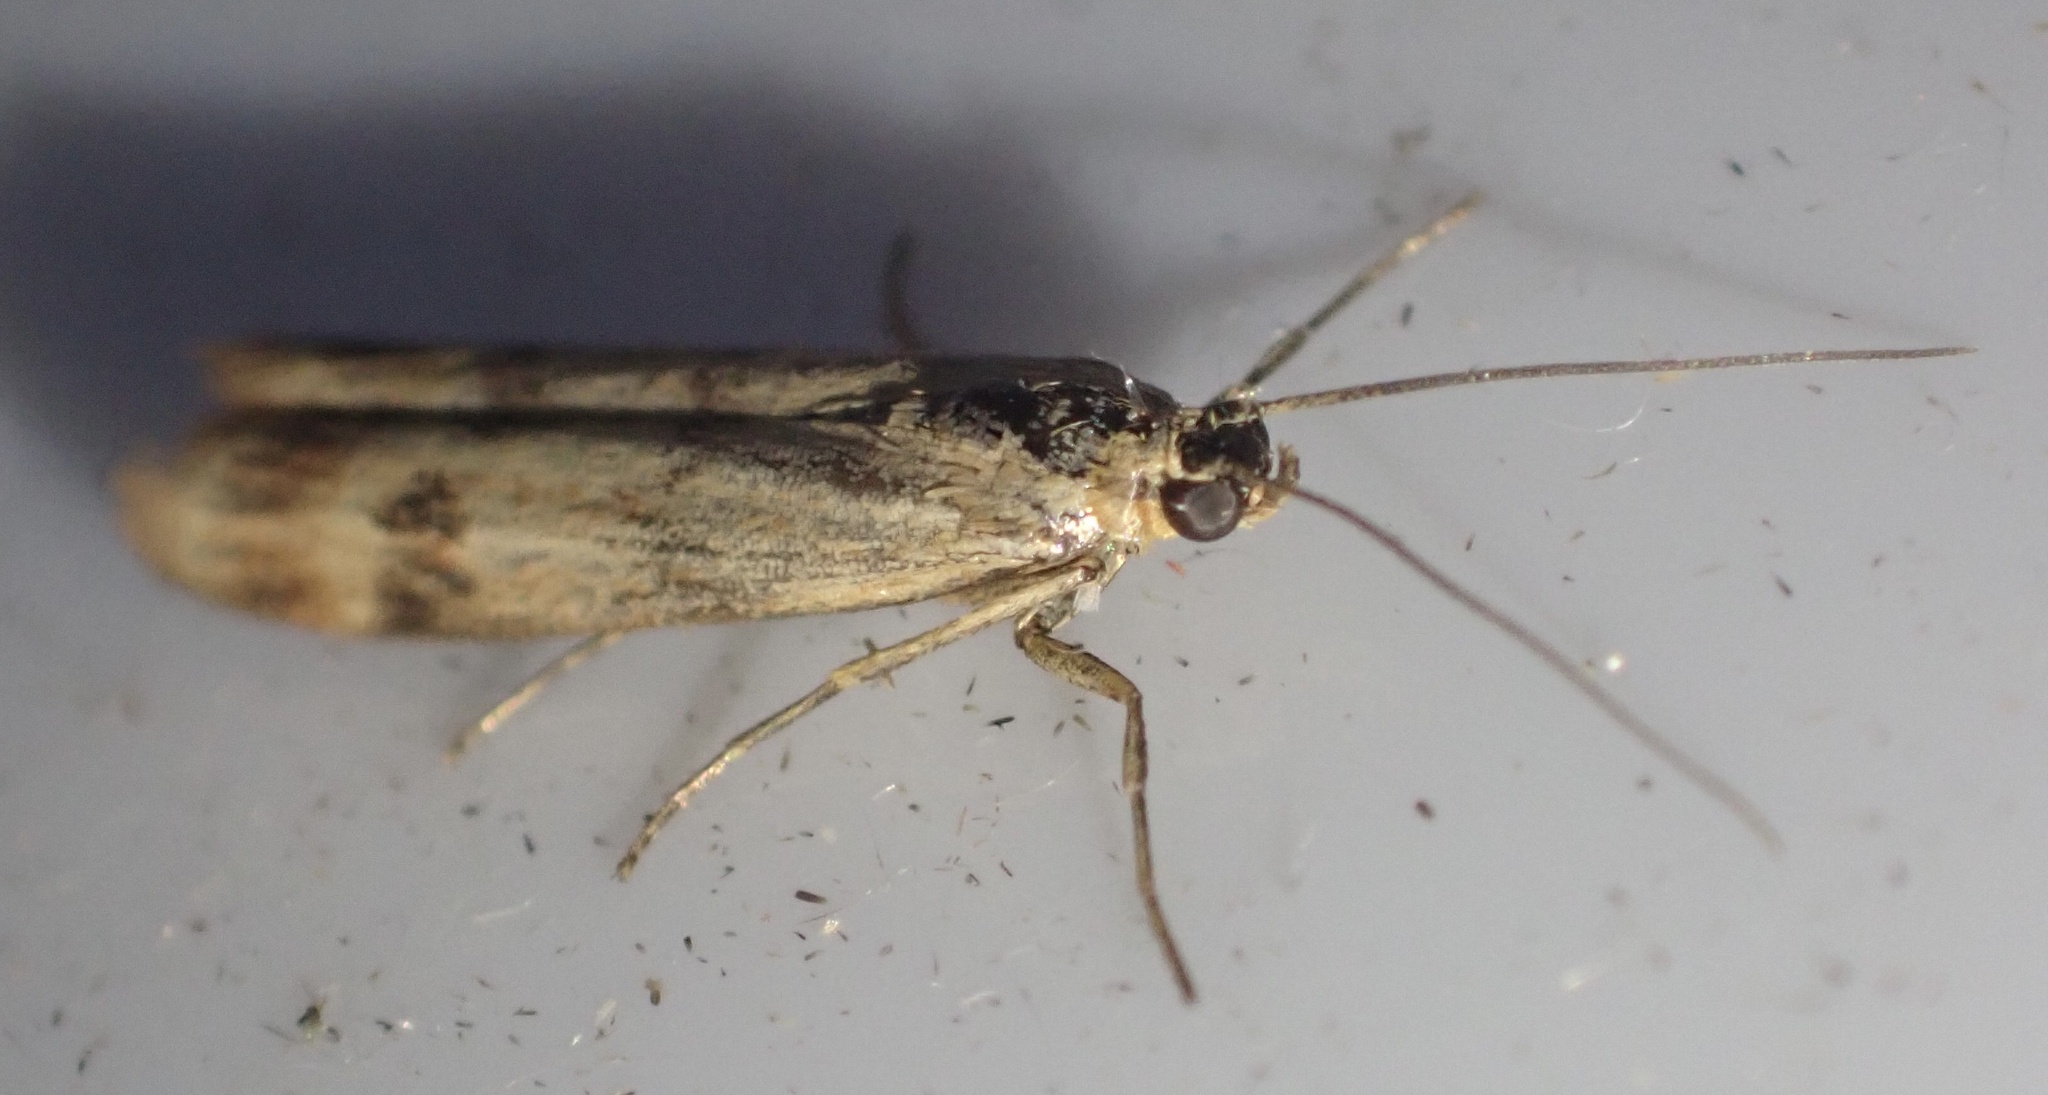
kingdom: Animalia
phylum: Arthropoda
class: Insecta
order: Lepidoptera
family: Pyralidae
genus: Homoeosoma
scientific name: Homoeosoma sinuella
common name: Twin-barred knot-horn
